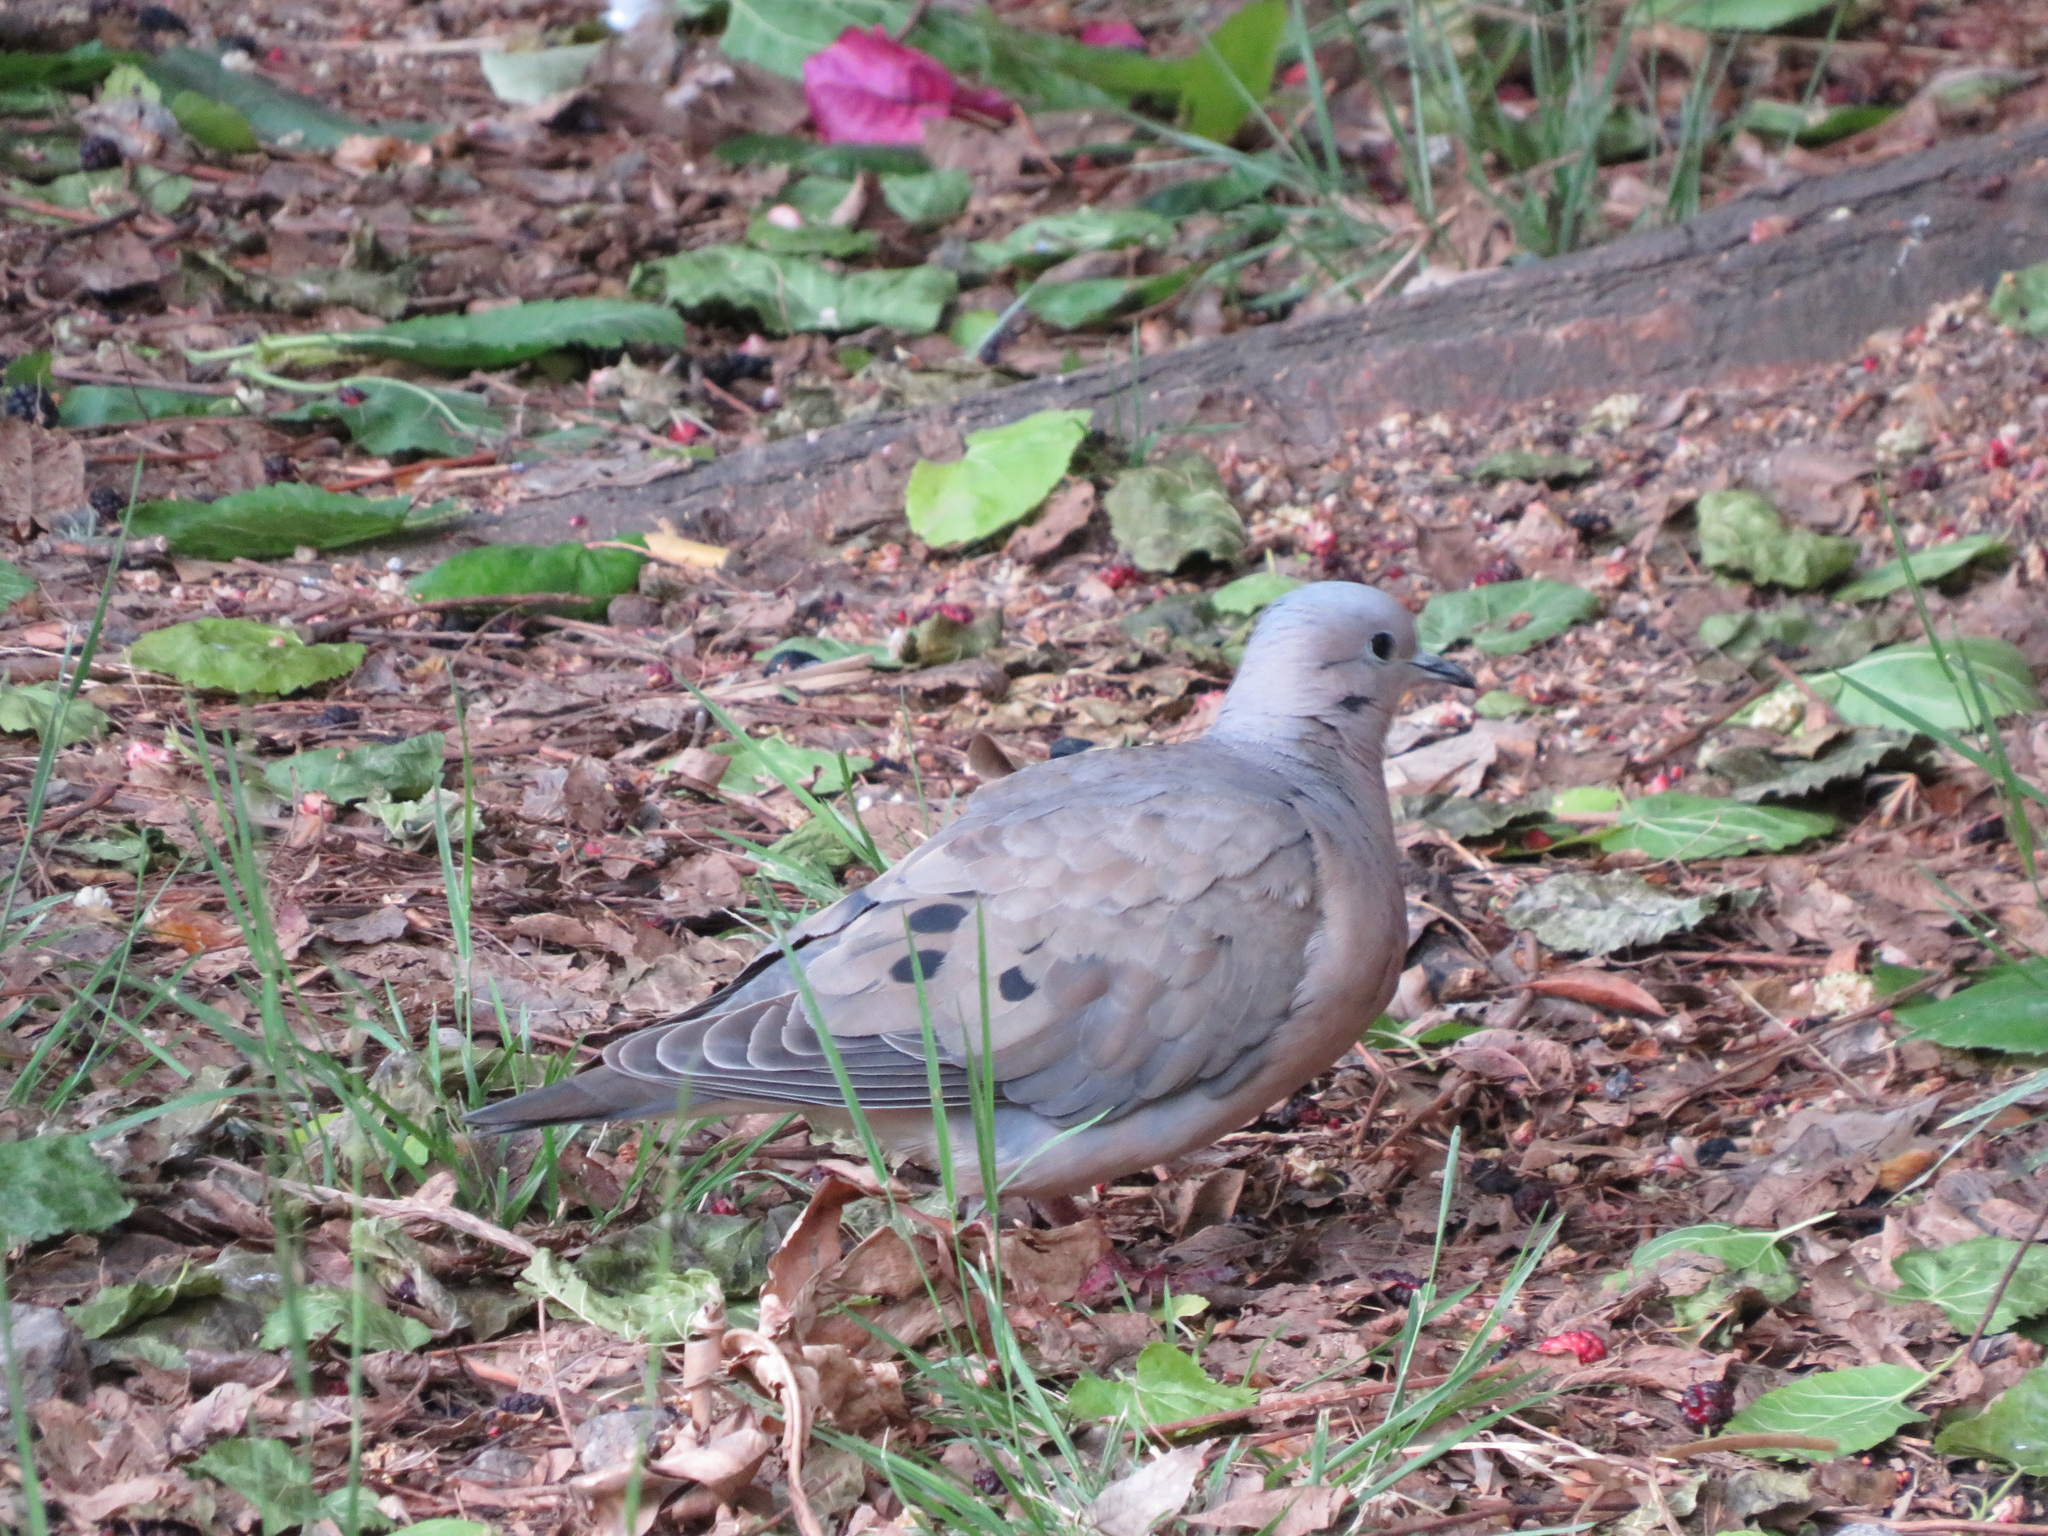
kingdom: Animalia
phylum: Chordata
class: Aves
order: Columbiformes
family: Columbidae
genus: Zenaida
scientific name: Zenaida auriculata
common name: Eared dove
